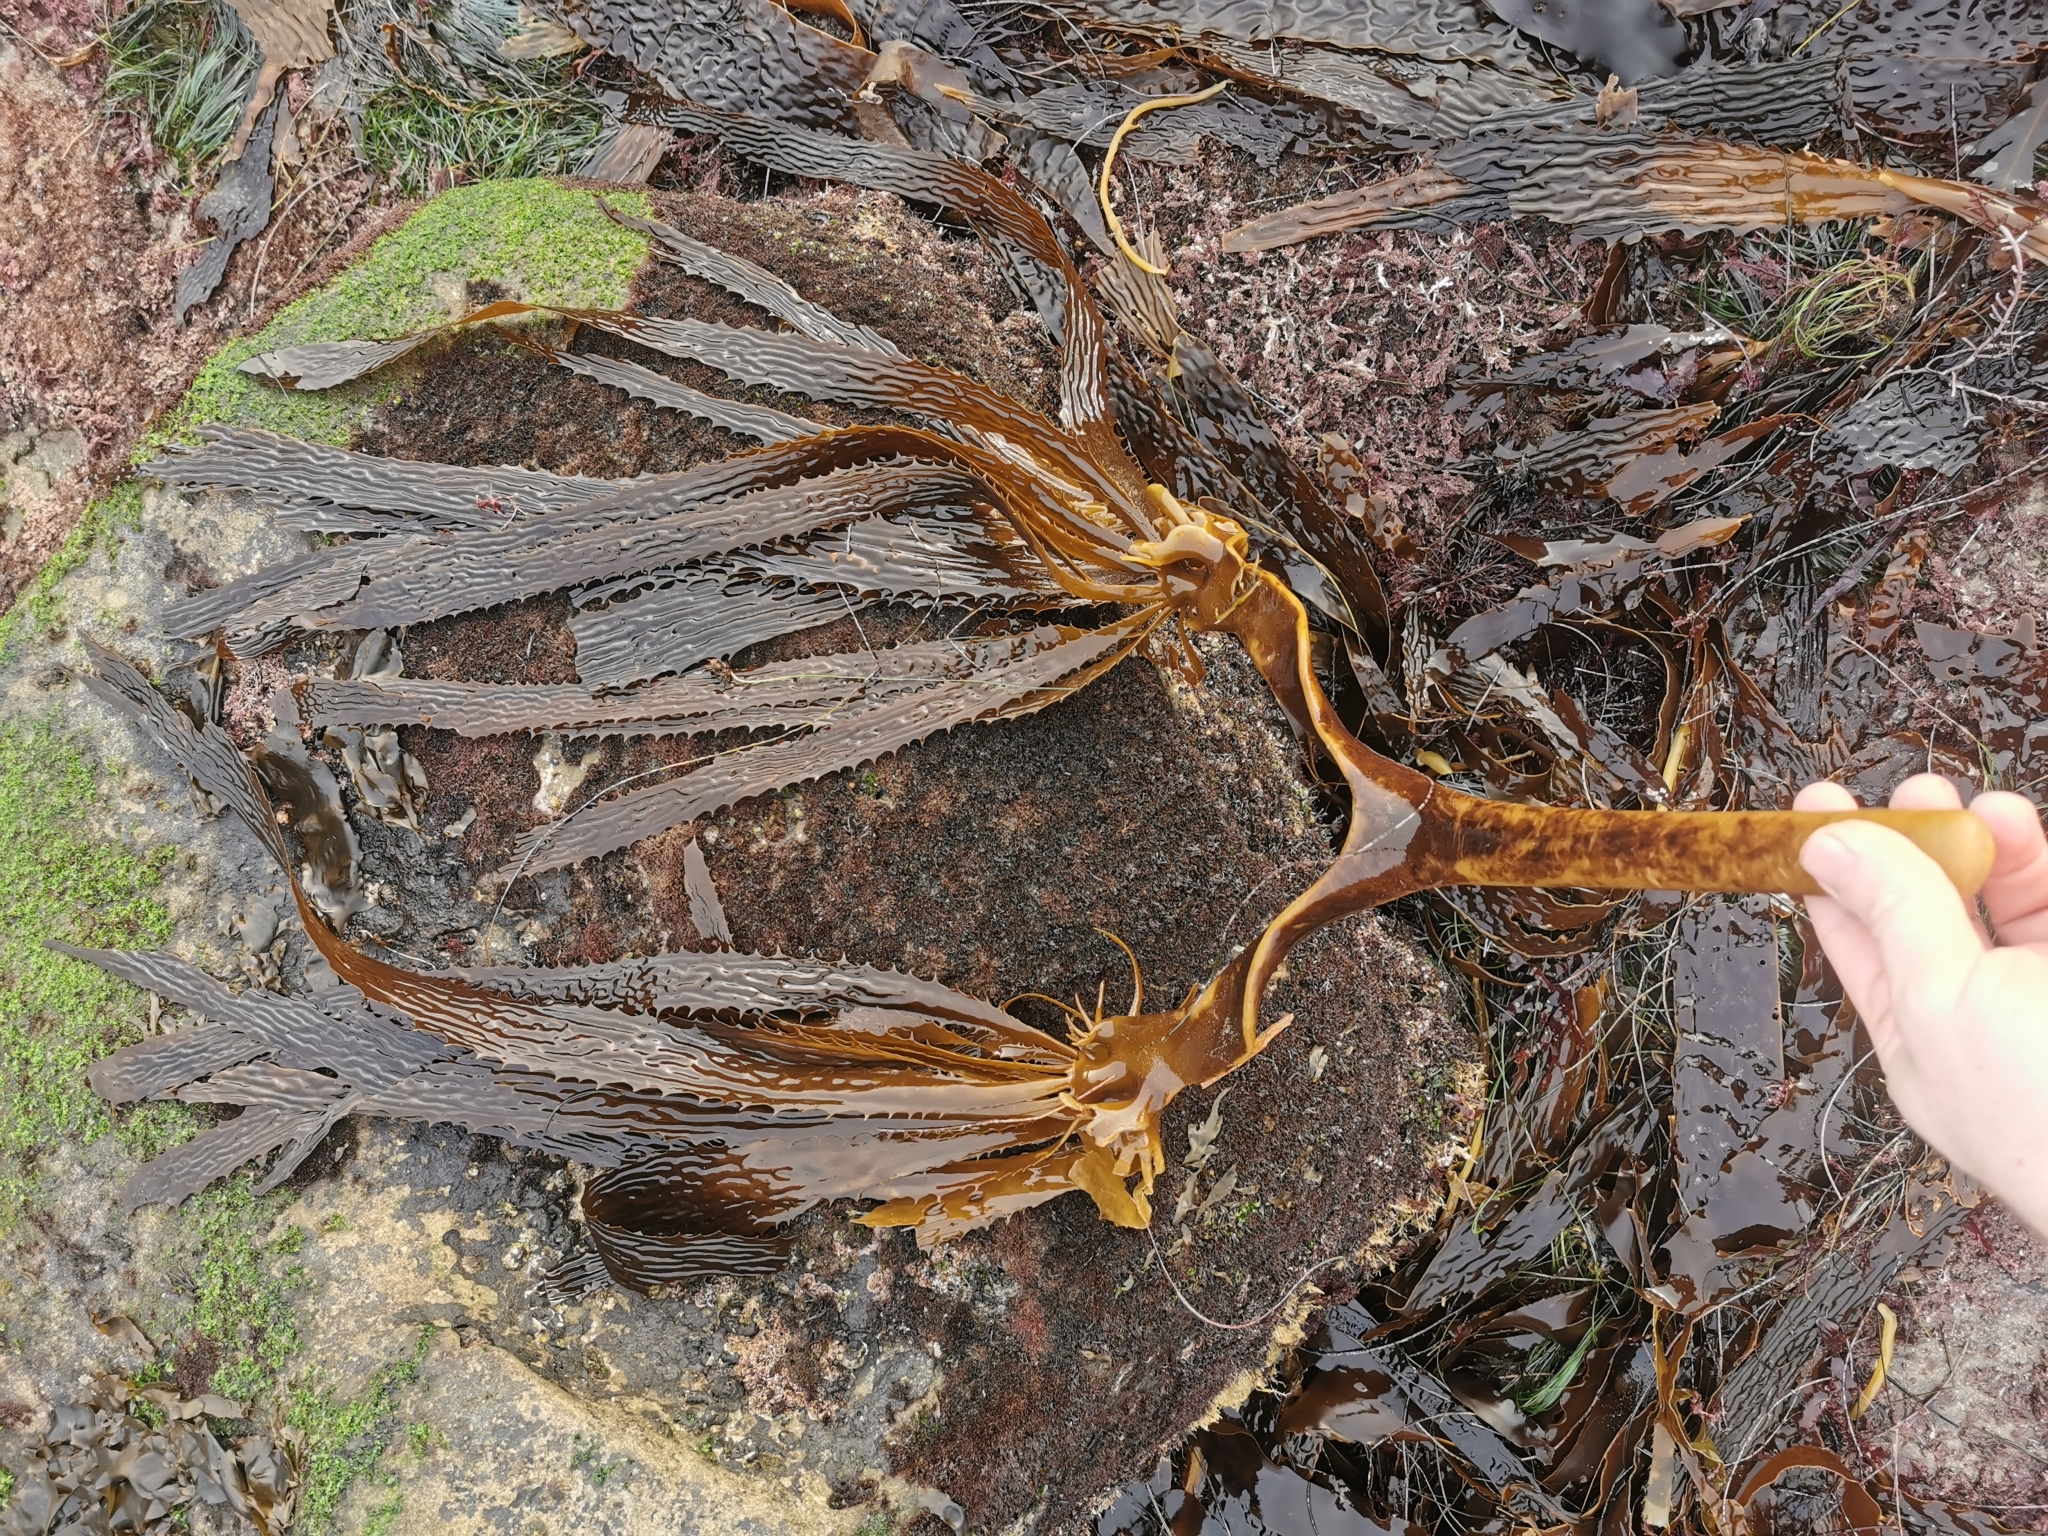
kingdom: Chromista
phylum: Ochrophyta
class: Phaeophyceae
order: Laminariales
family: Lessoniaceae
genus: Eisenia
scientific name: Eisenia arborea
